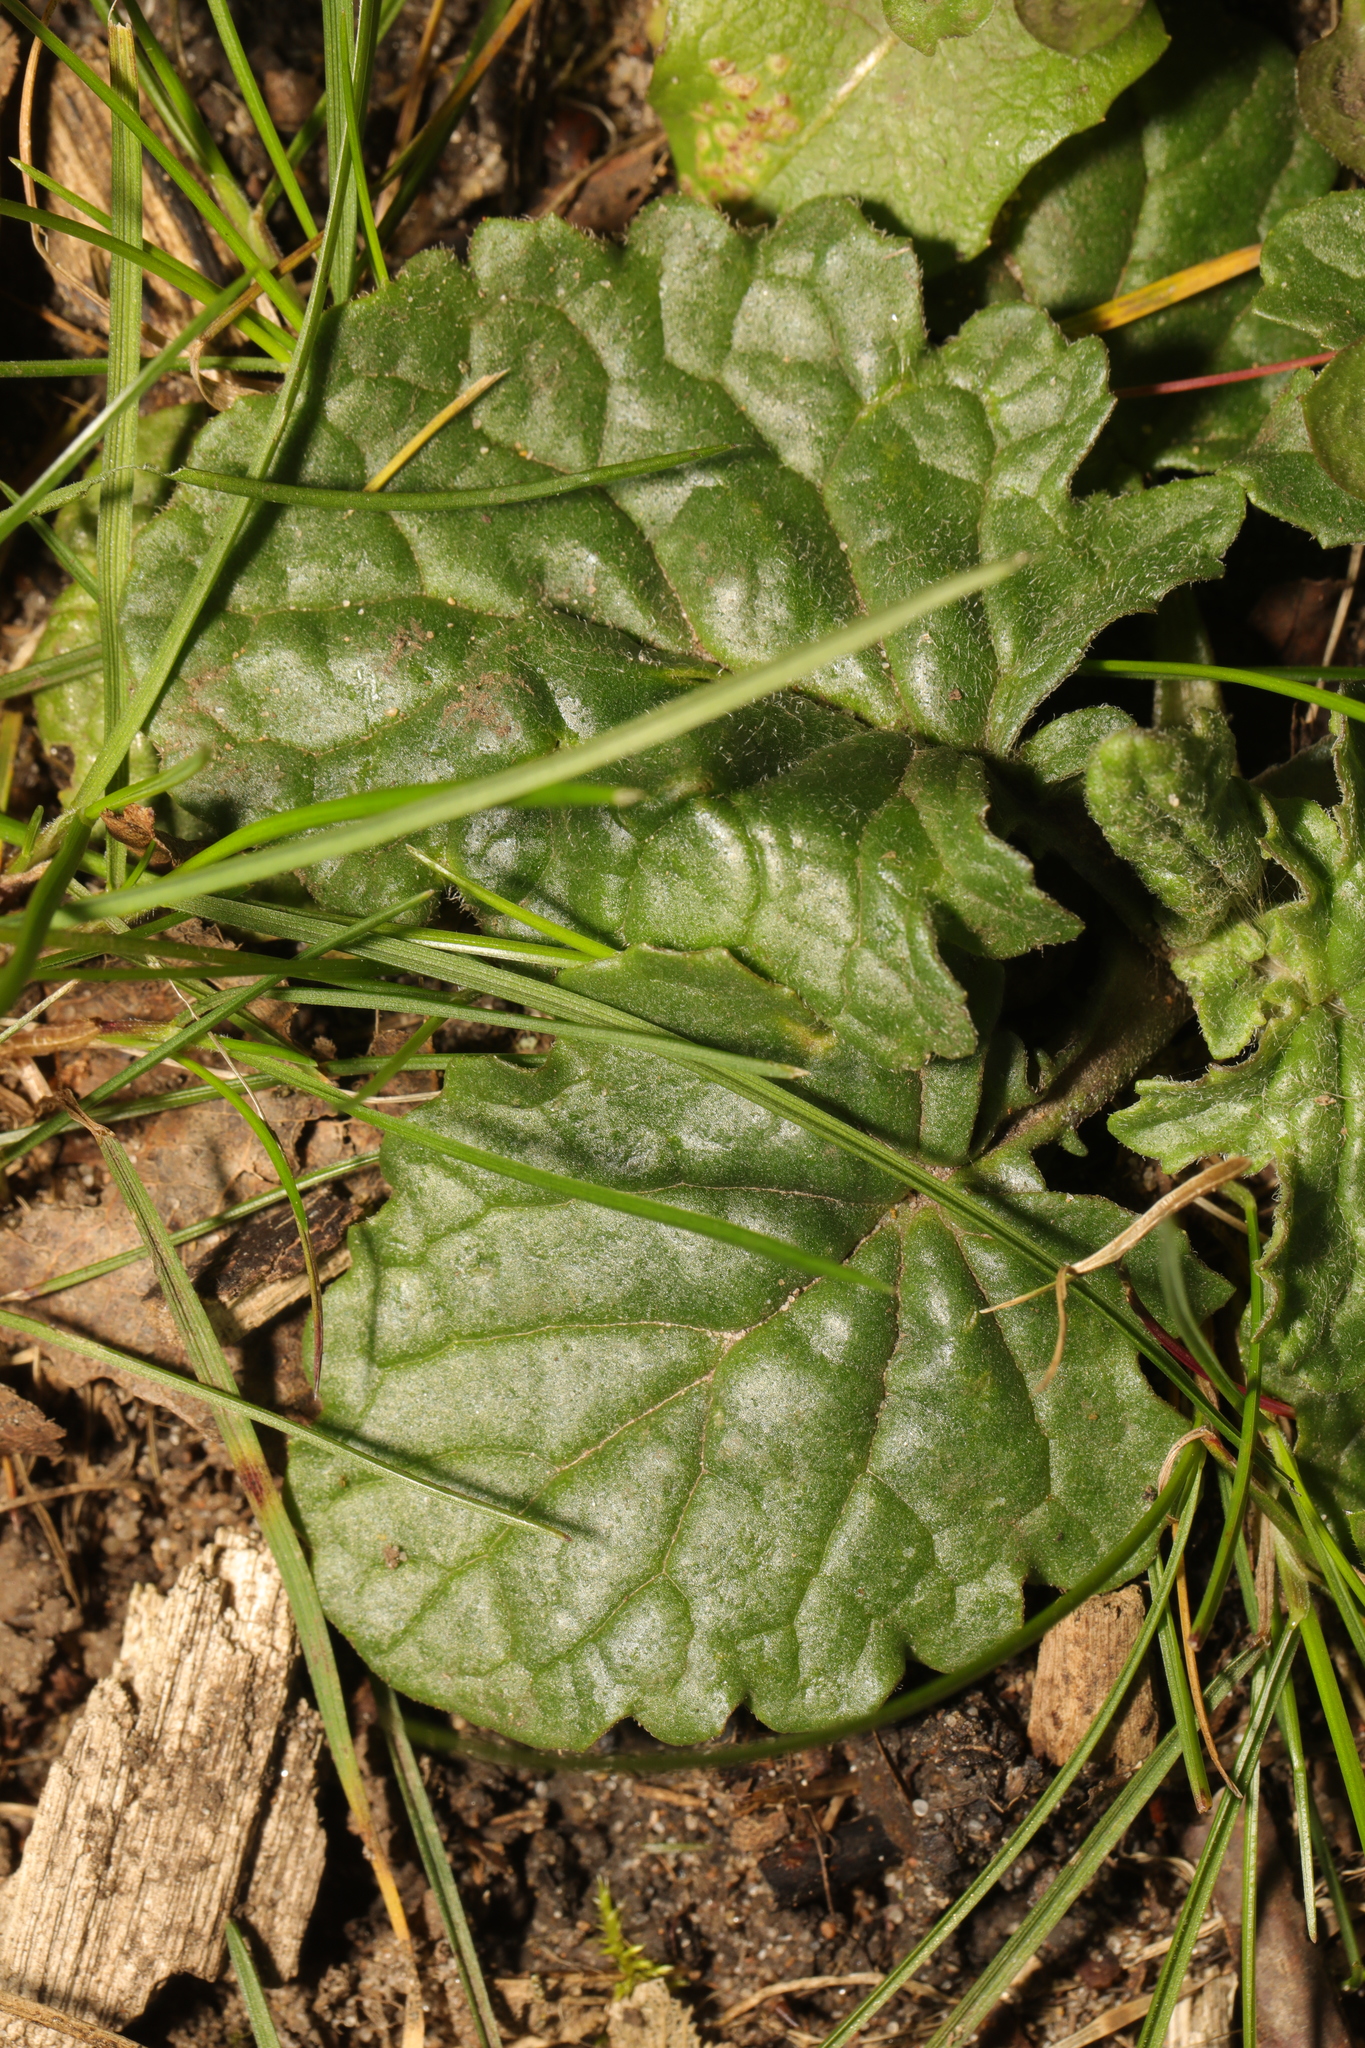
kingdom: Plantae
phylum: Tracheophyta
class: Magnoliopsida
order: Lamiales
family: Lamiaceae
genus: Ajuga
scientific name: Ajuga reptans
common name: Bugle
